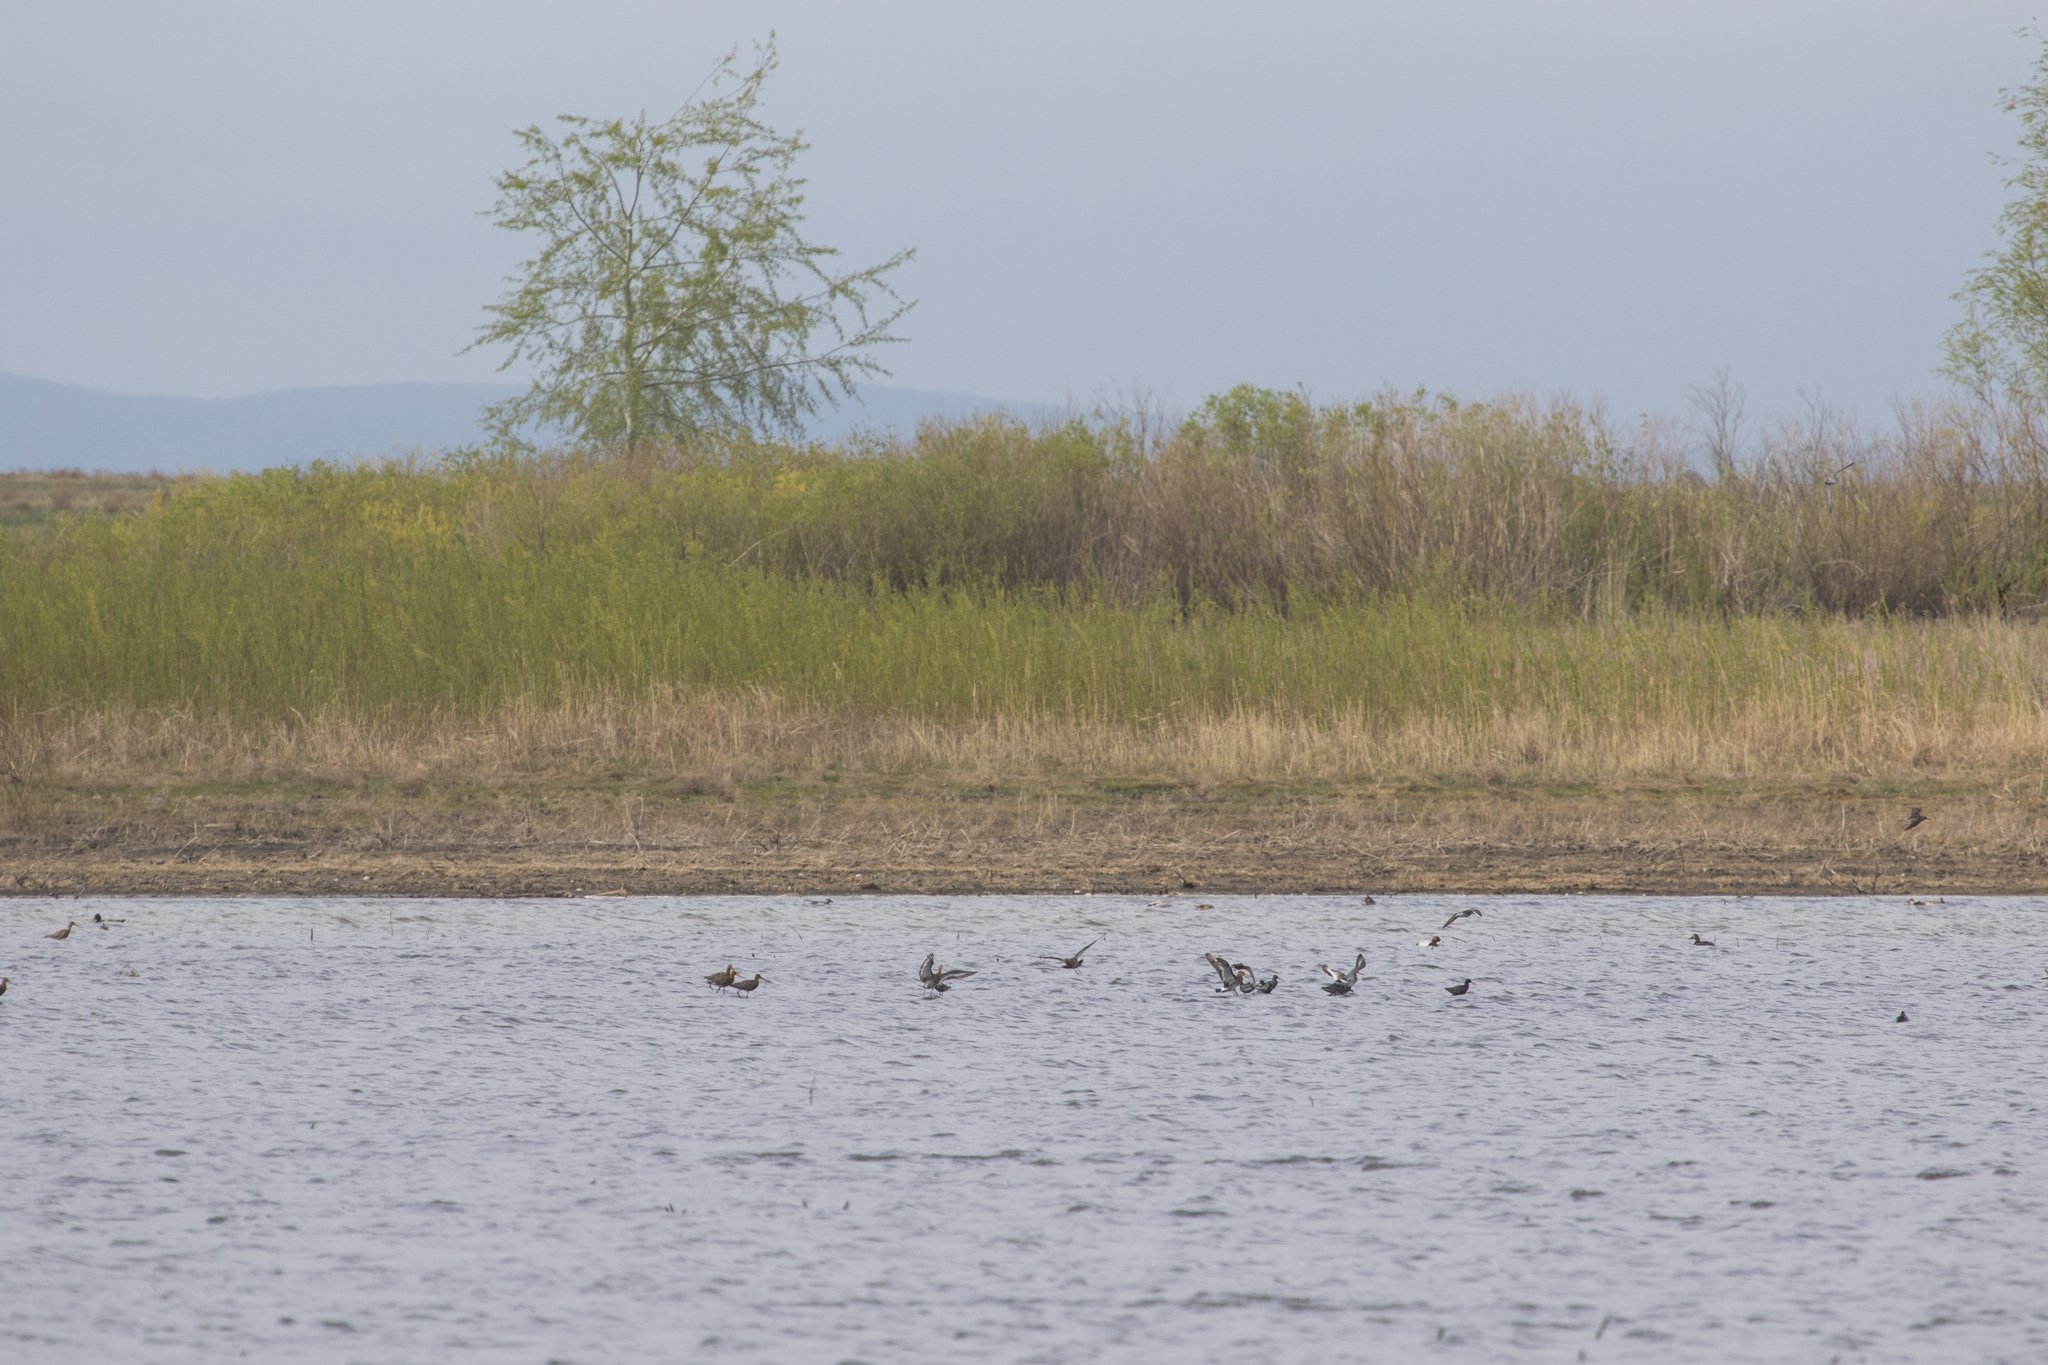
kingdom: Animalia
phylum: Chordata
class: Aves
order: Anseriformes
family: Anatidae
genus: Aythya
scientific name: Aythya ferina
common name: Common pochard
